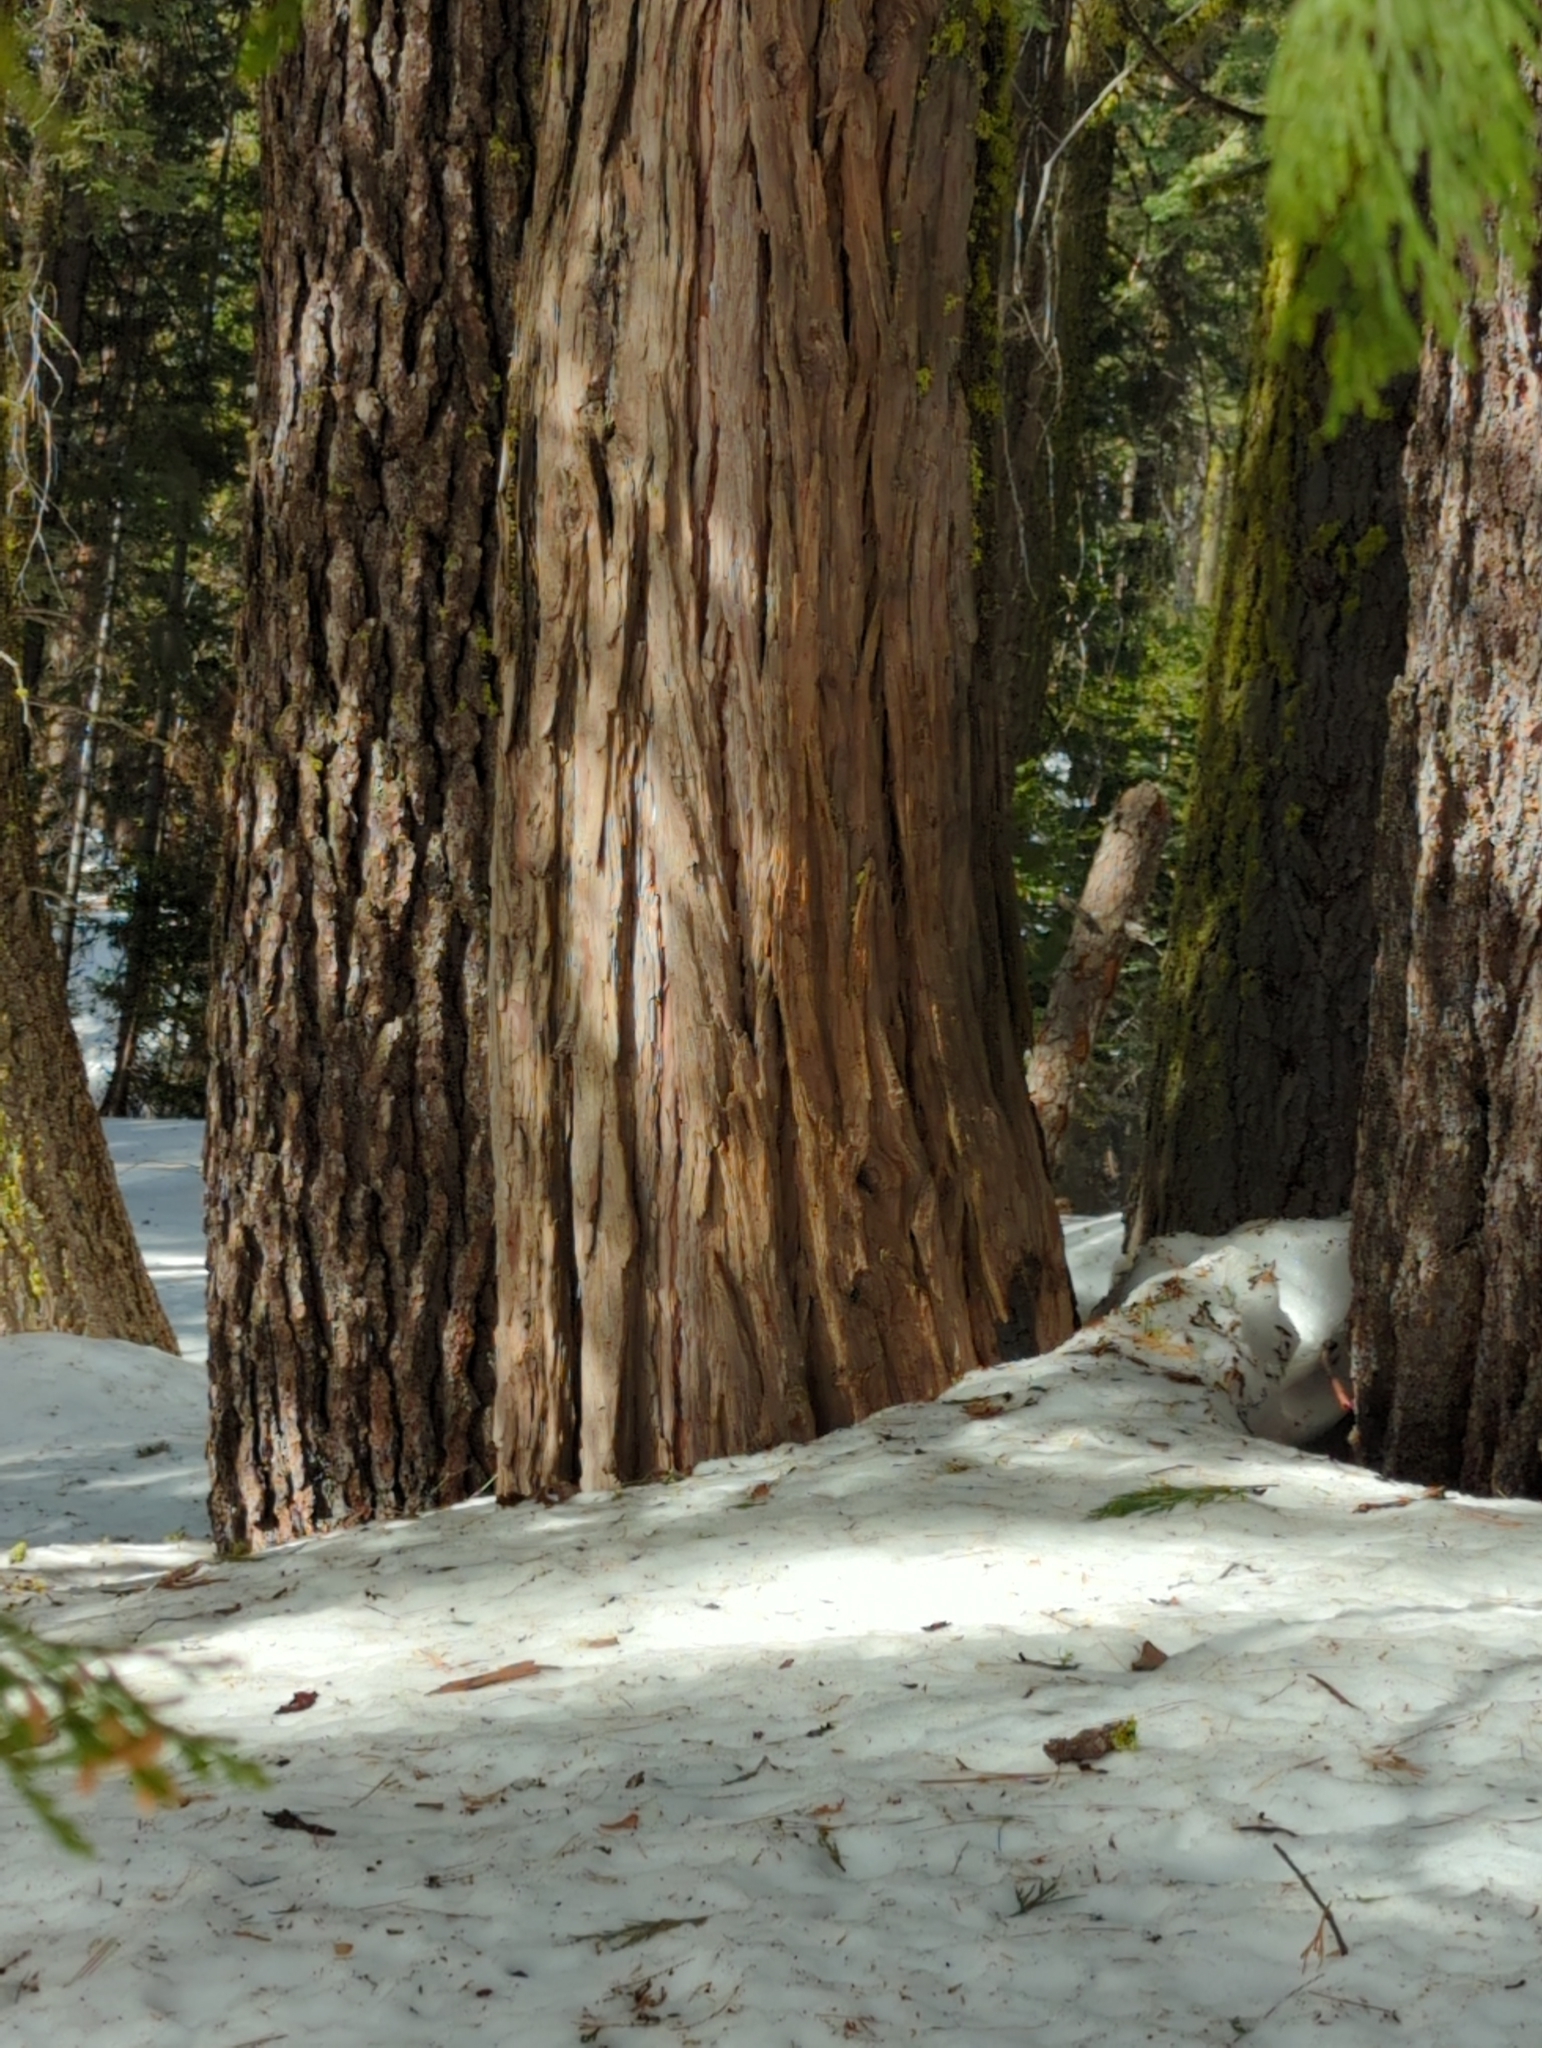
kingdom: Plantae
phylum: Tracheophyta
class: Pinopsida
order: Pinales
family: Cupressaceae
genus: Calocedrus
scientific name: Calocedrus decurrens
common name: Californian incense-cedar
